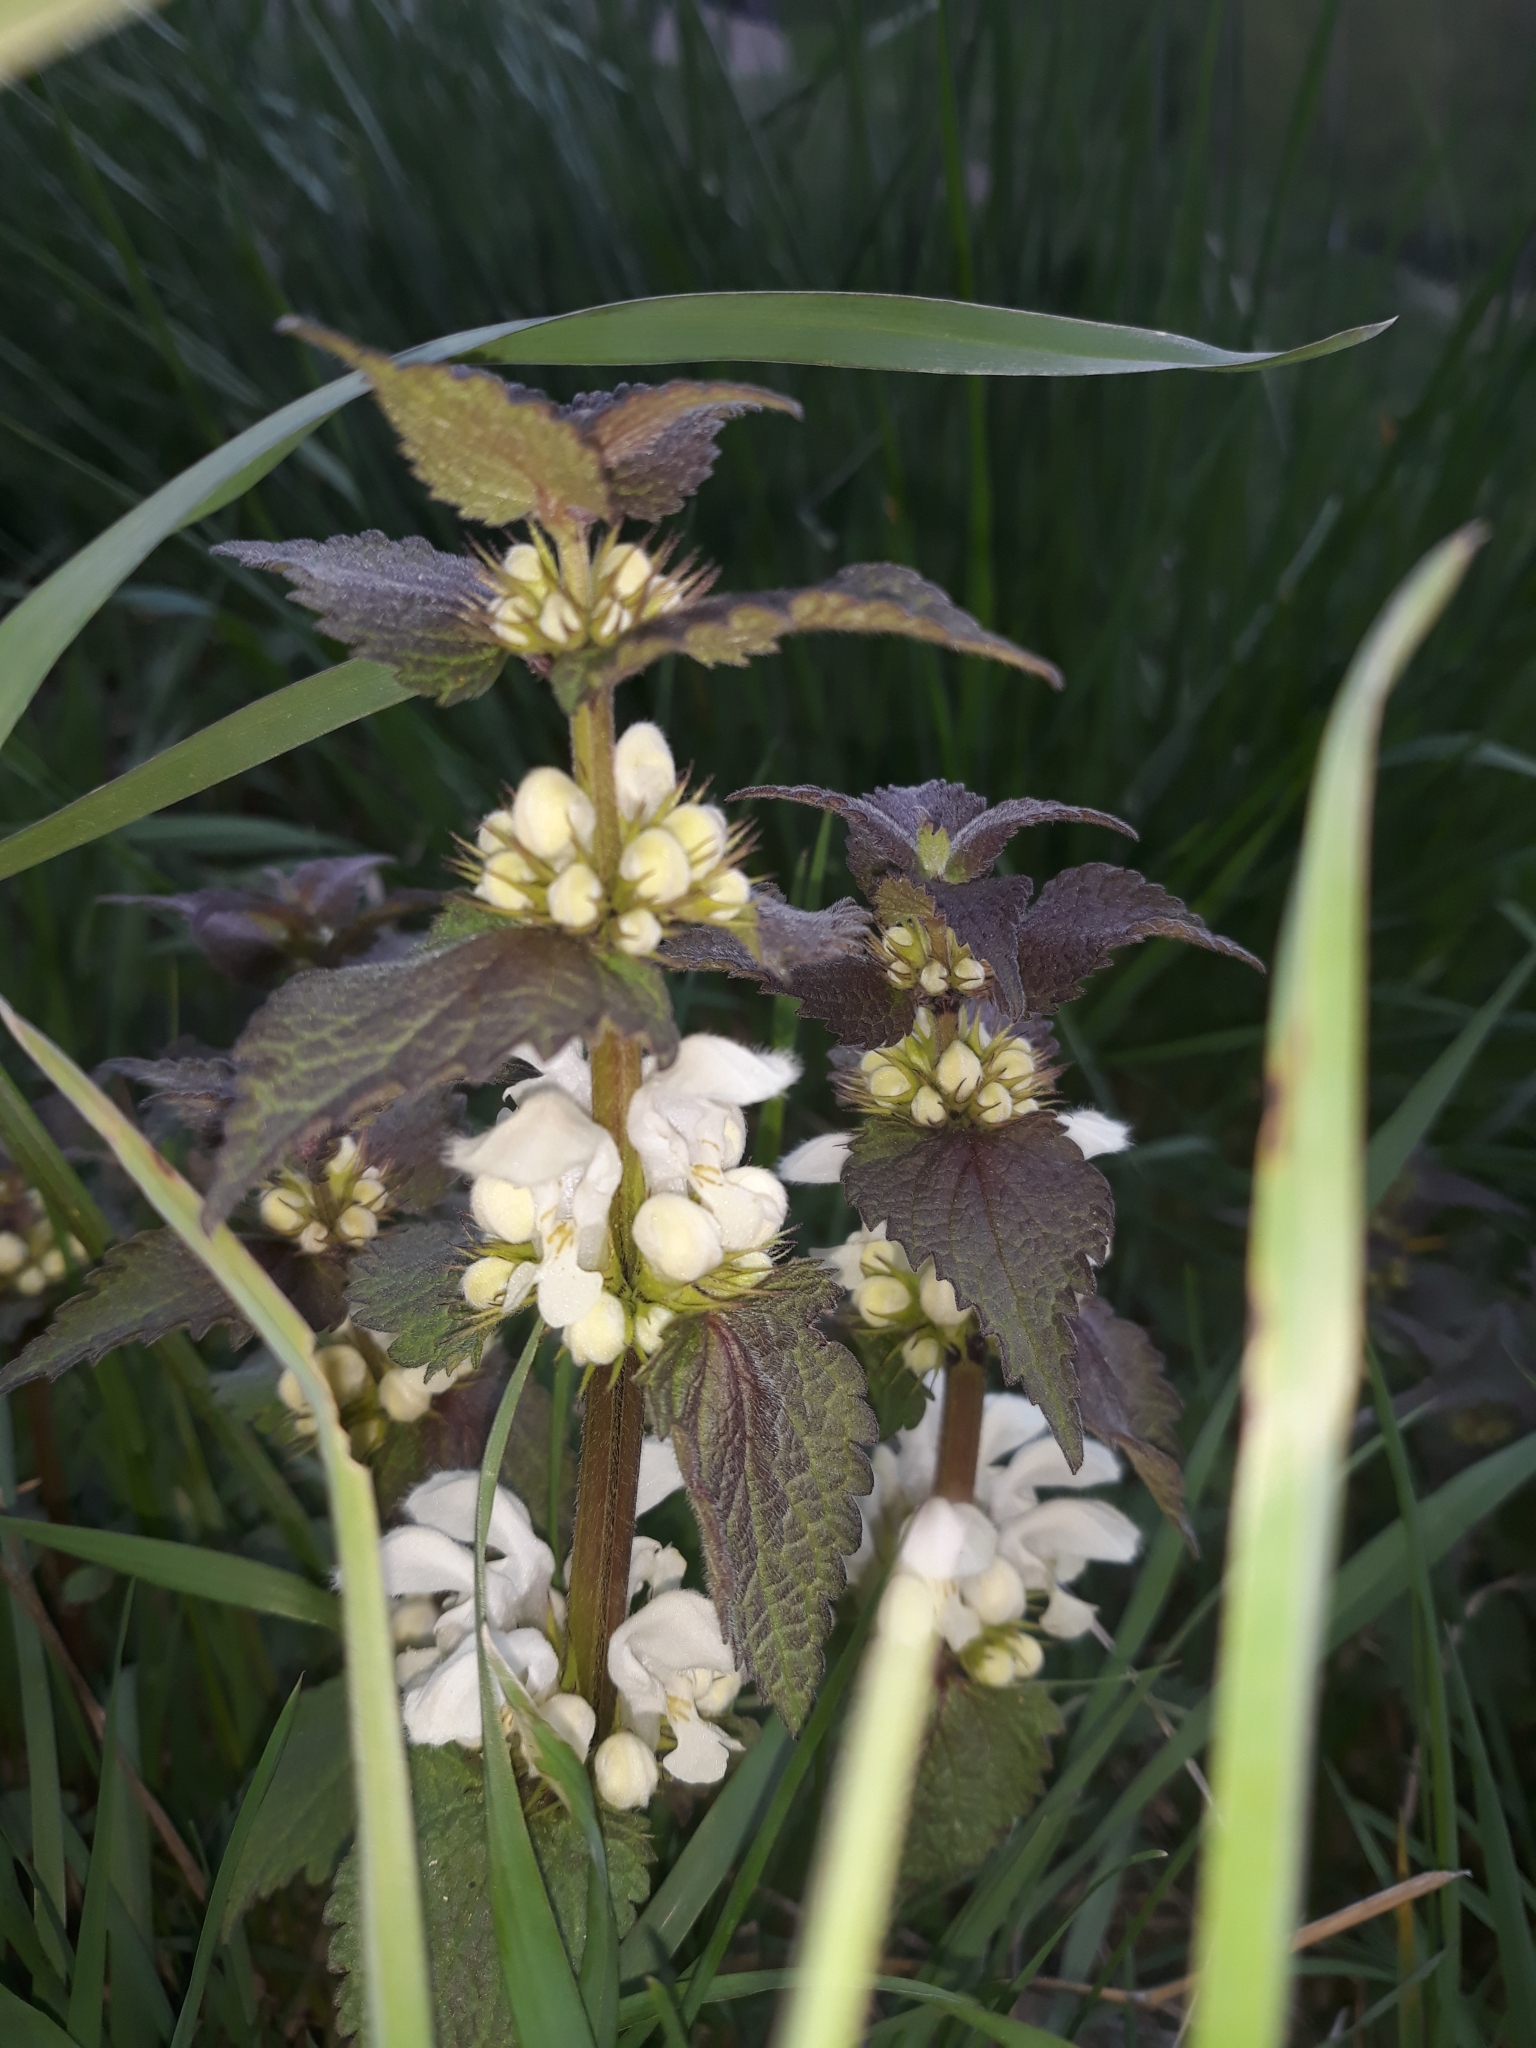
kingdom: Plantae
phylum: Tracheophyta
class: Magnoliopsida
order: Lamiales
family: Lamiaceae
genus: Lamium
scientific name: Lamium album
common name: White dead-nettle
